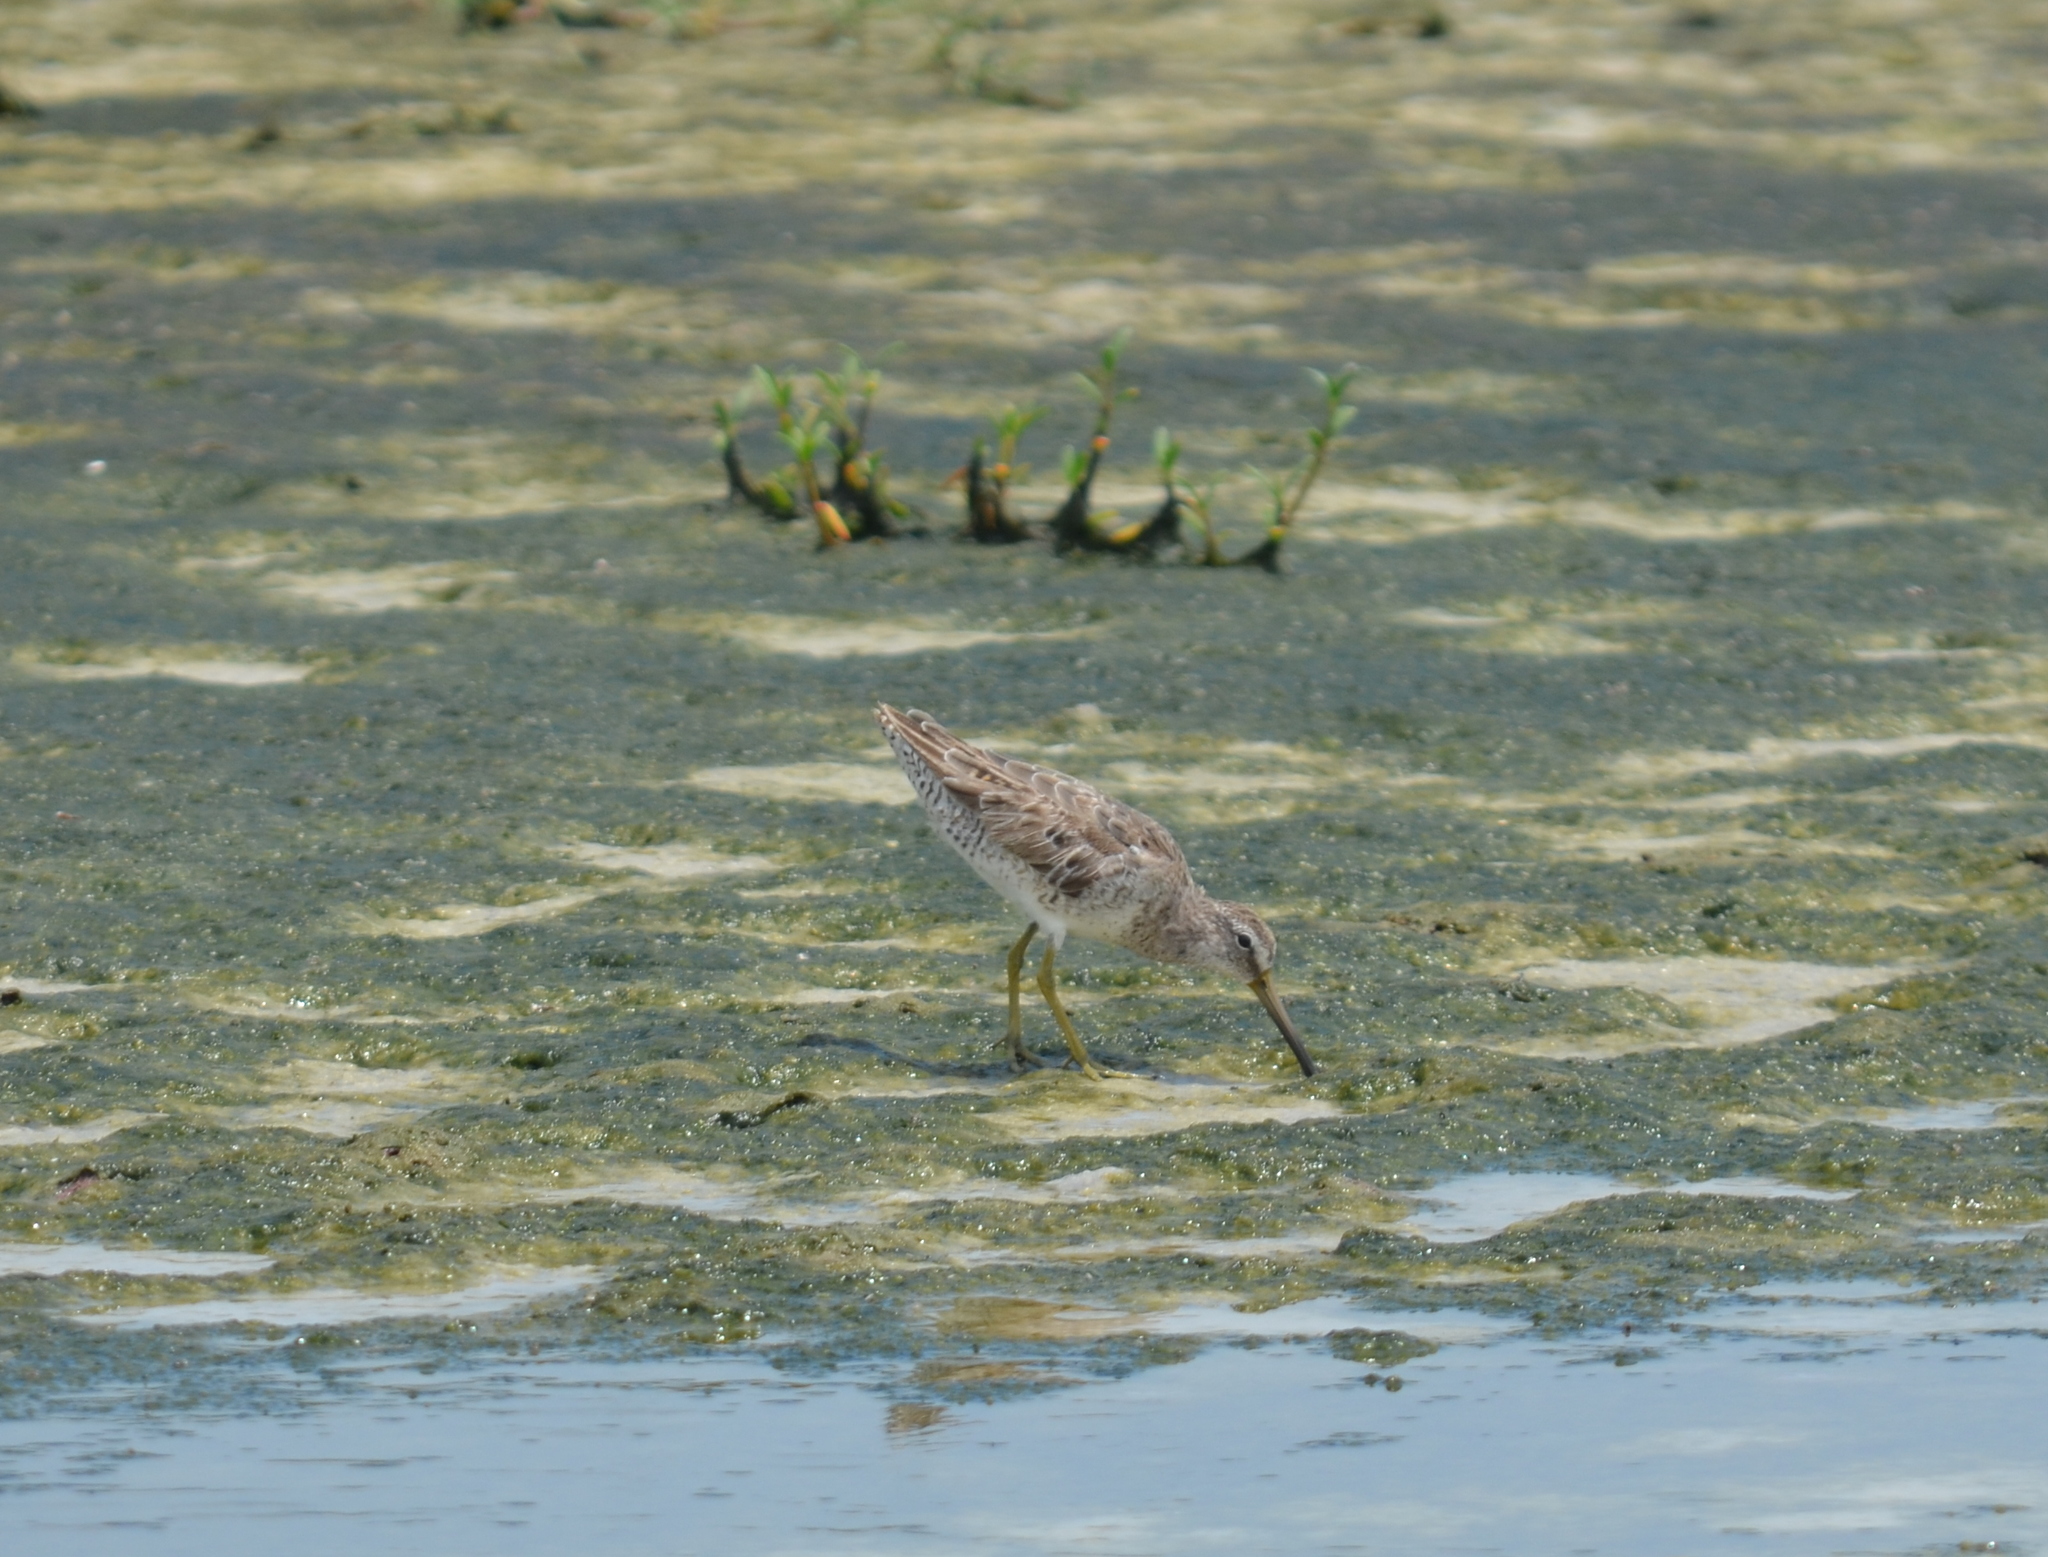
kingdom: Animalia
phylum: Chordata
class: Aves
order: Charadriiformes
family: Scolopacidae
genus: Limnodromus
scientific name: Limnodromus griseus
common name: Short-billed dowitcher
